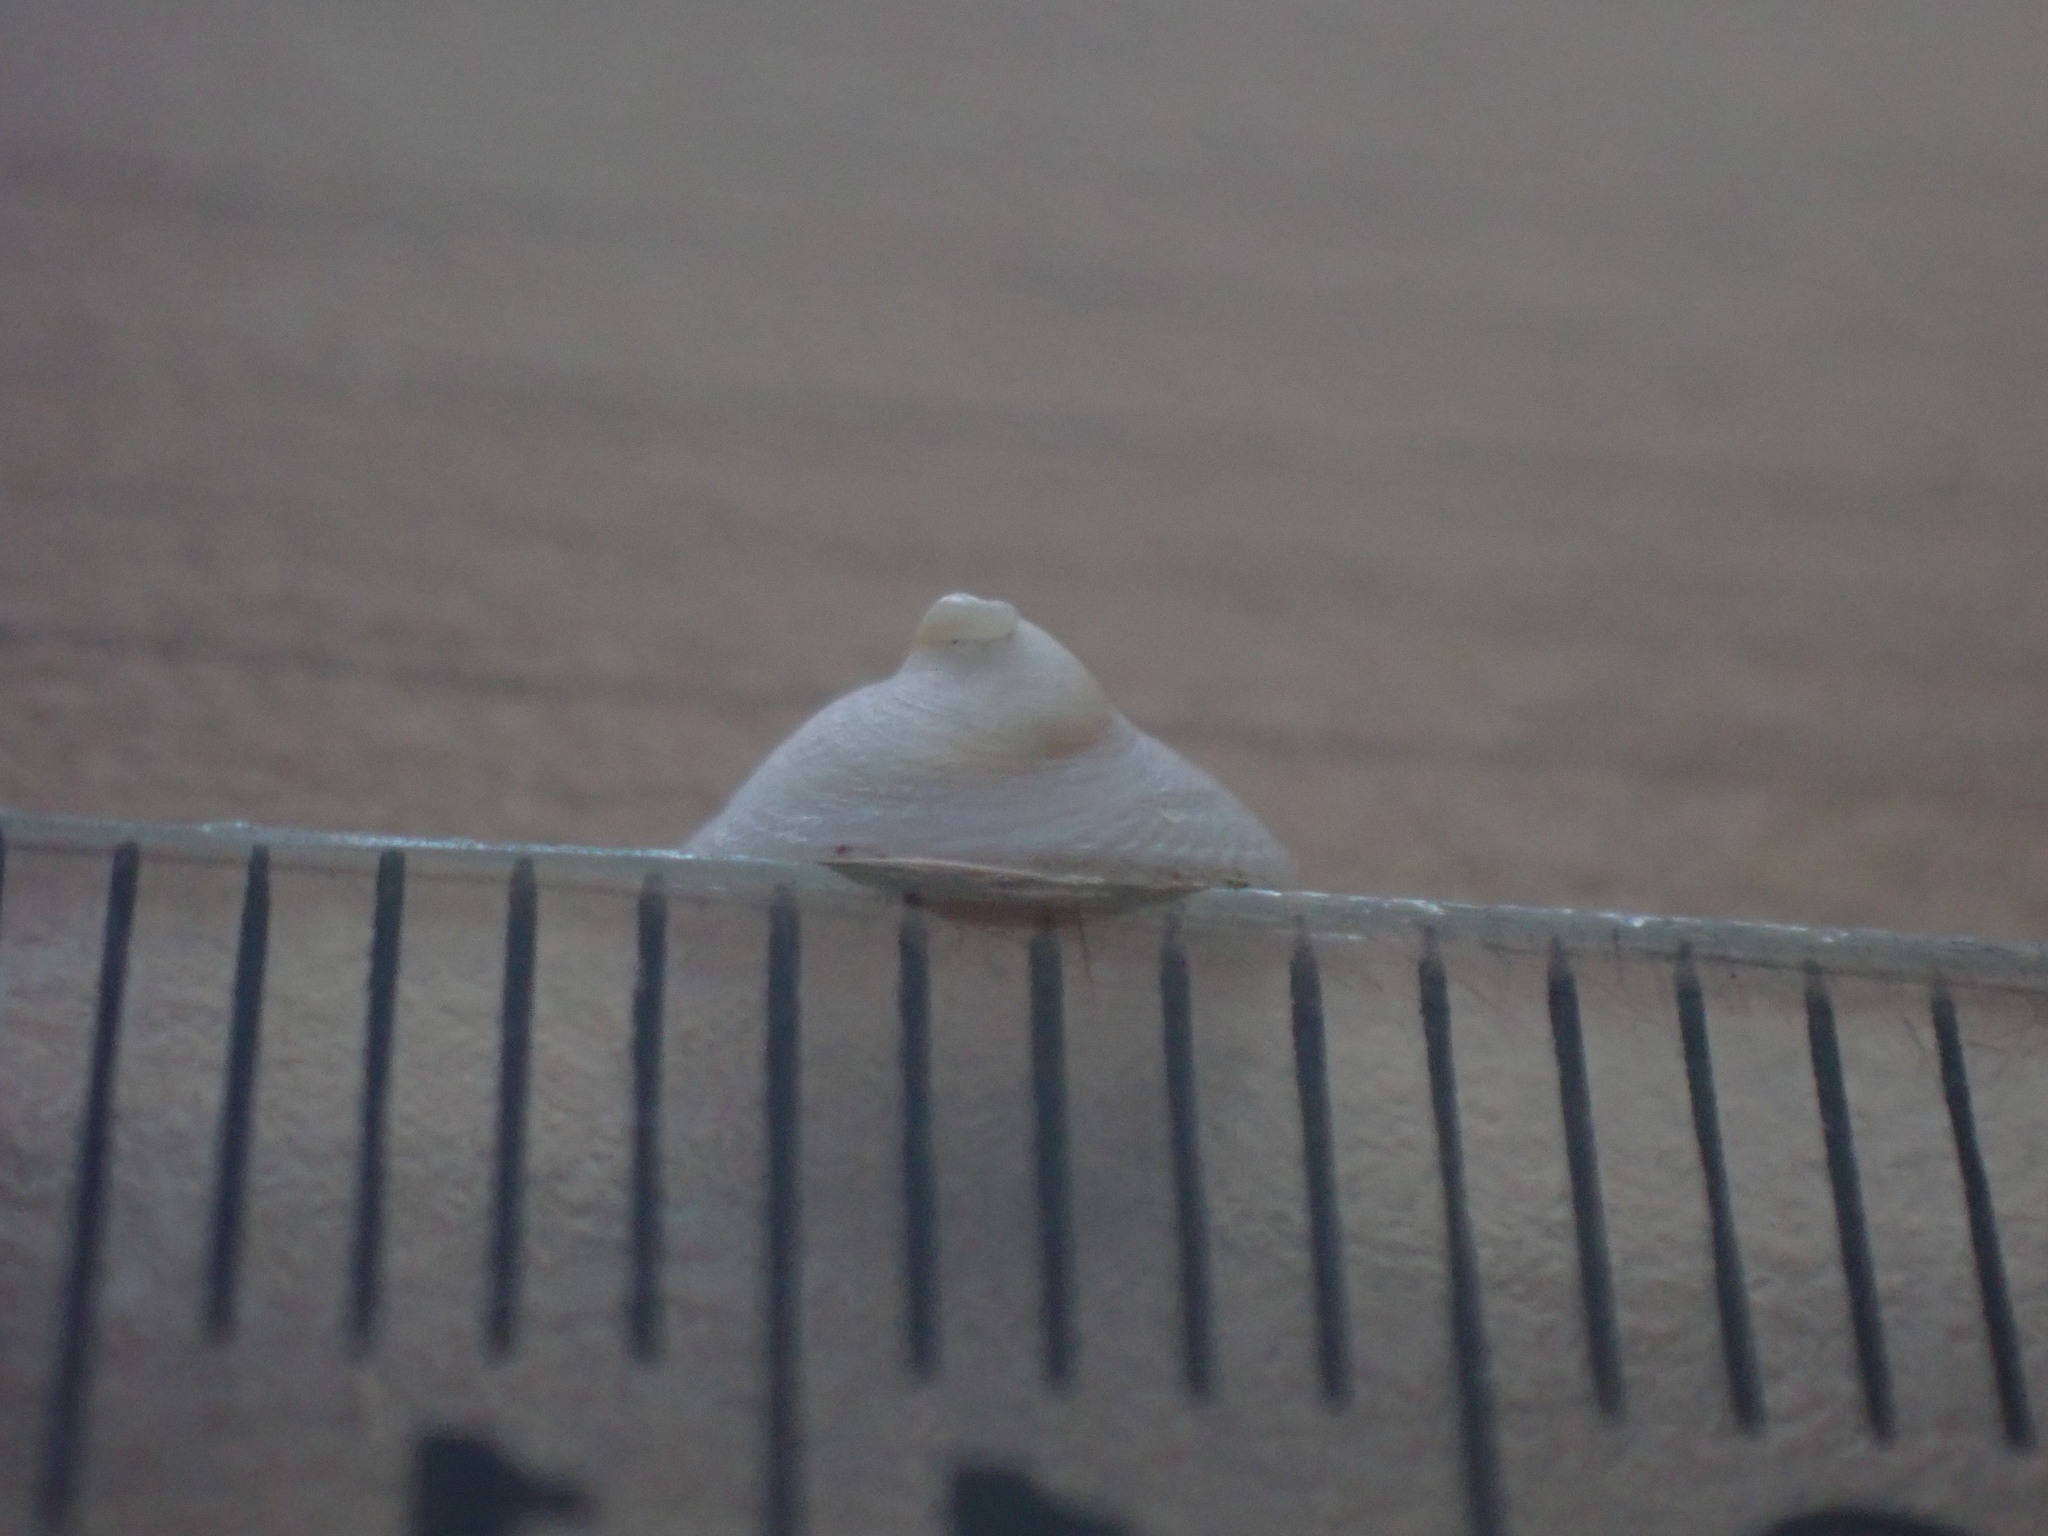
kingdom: Animalia
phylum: Mollusca
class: Gastropoda
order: Littorinimorpha
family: Calyptraeidae
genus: Sigapatella
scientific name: Sigapatella tenuis
